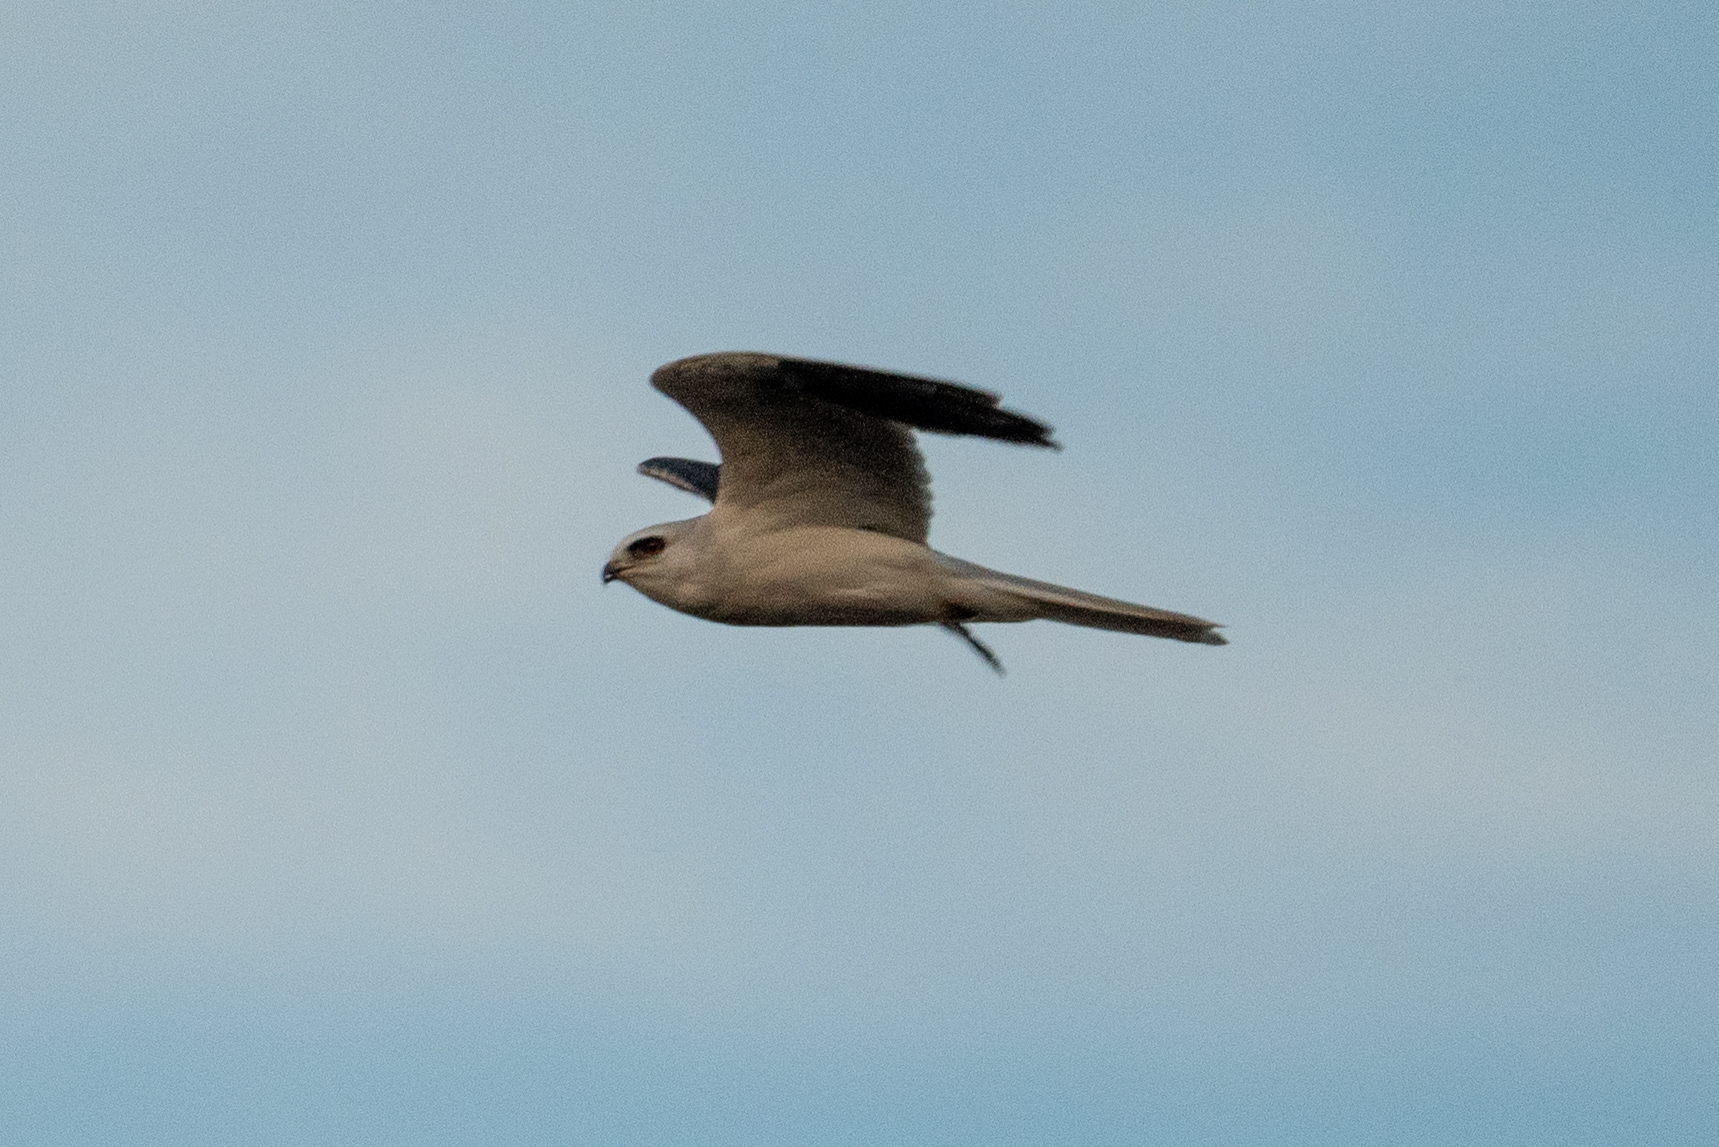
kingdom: Animalia
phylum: Chordata
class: Aves
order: Accipitriformes
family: Accipitridae
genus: Elanus
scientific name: Elanus leucurus
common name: White-tailed kite
